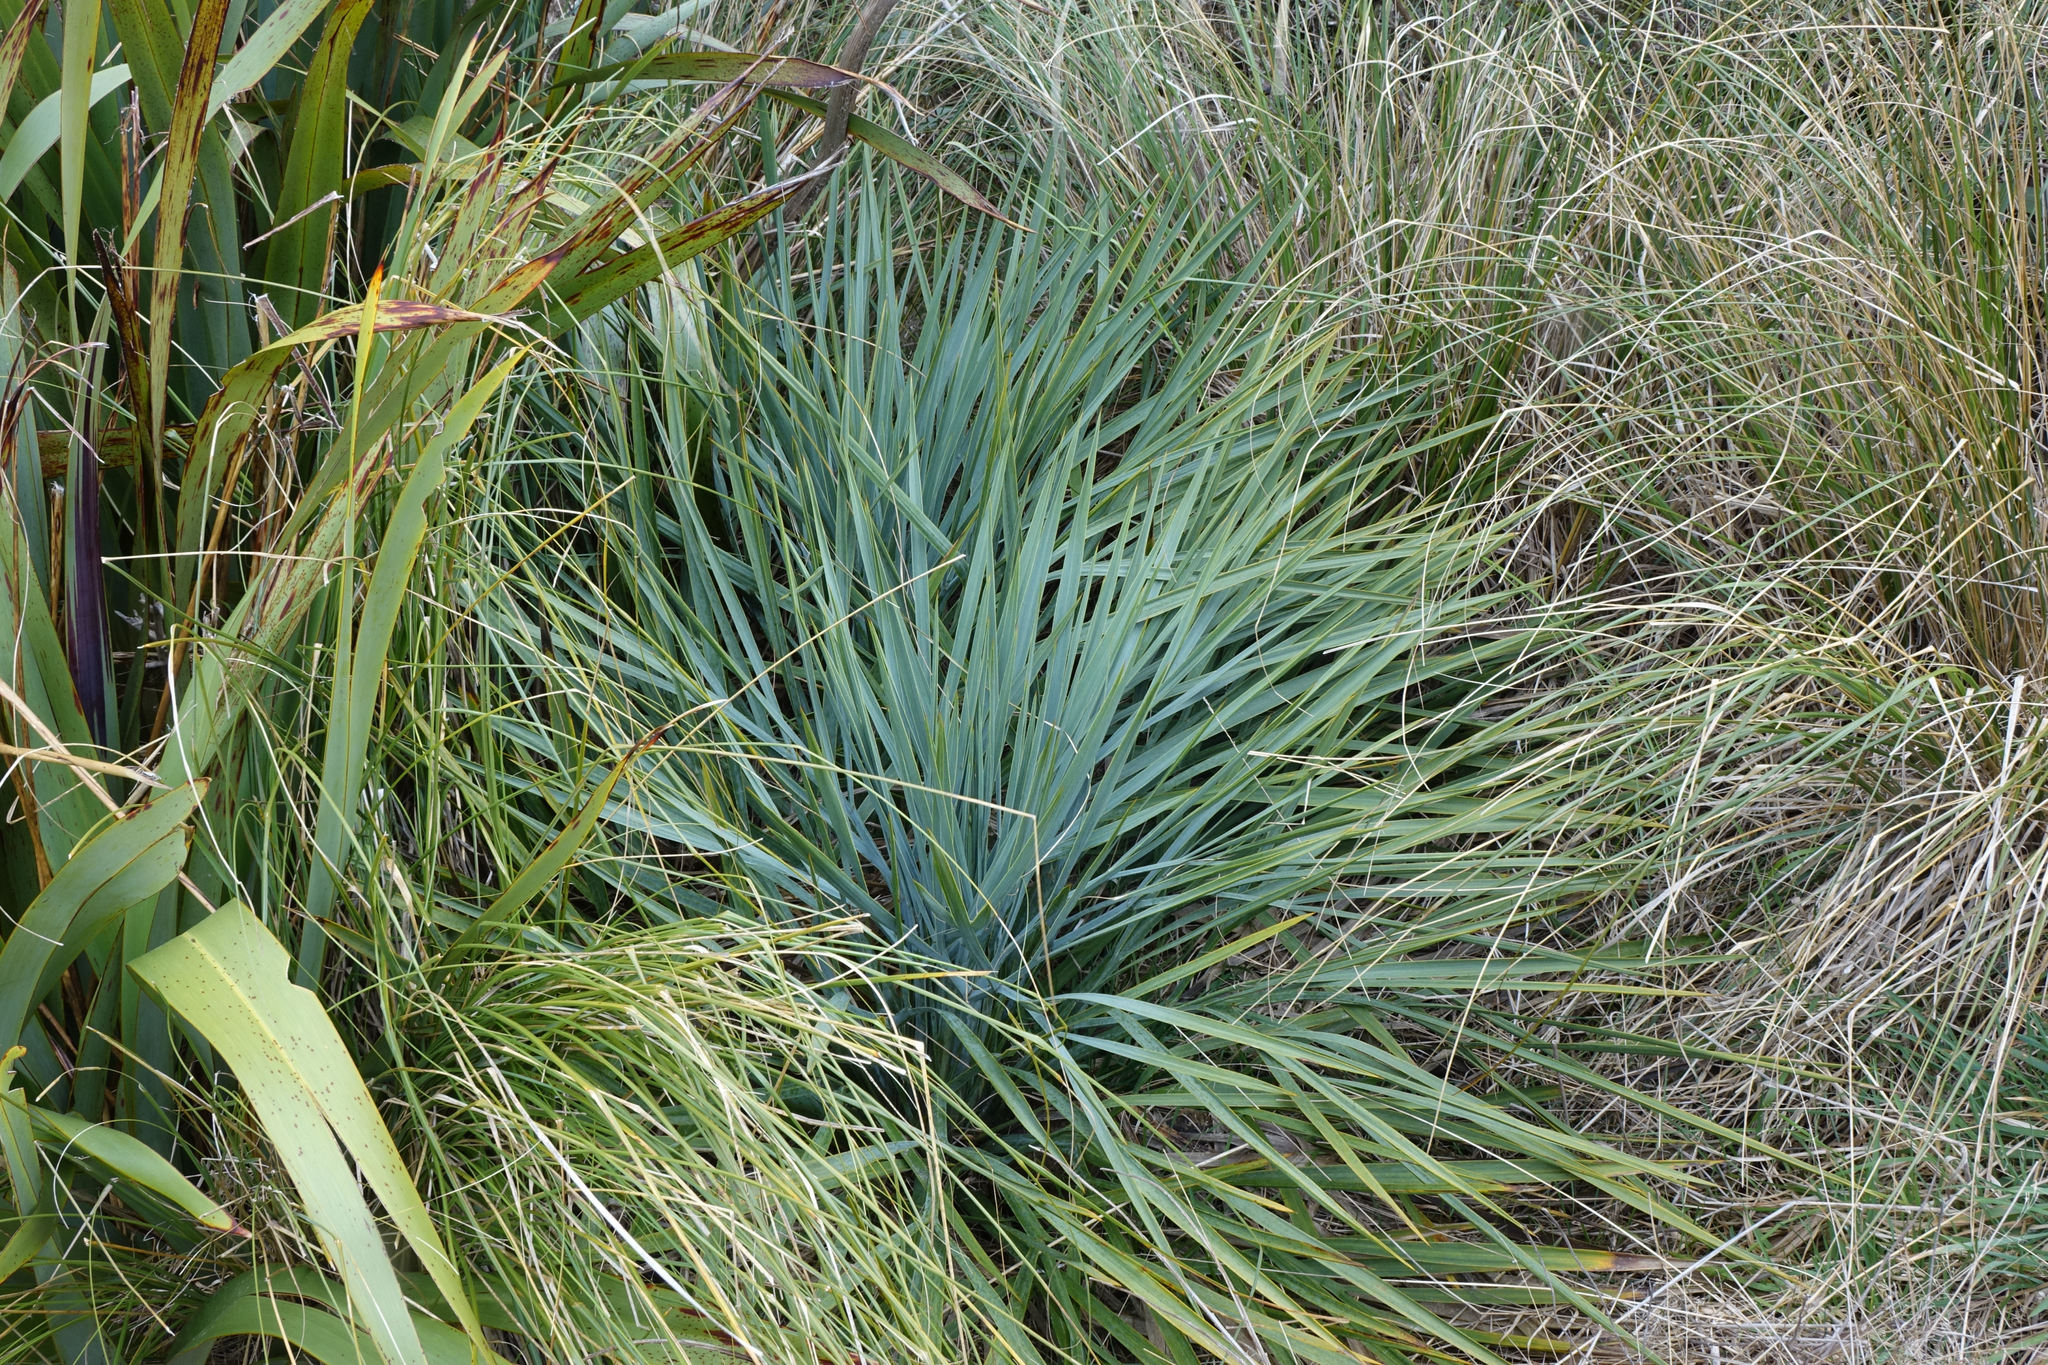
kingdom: Plantae
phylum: Tracheophyta
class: Magnoliopsida
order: Apiales
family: Apiaceae
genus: Aciphylla
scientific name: Aciphylla scott-thomsonii
